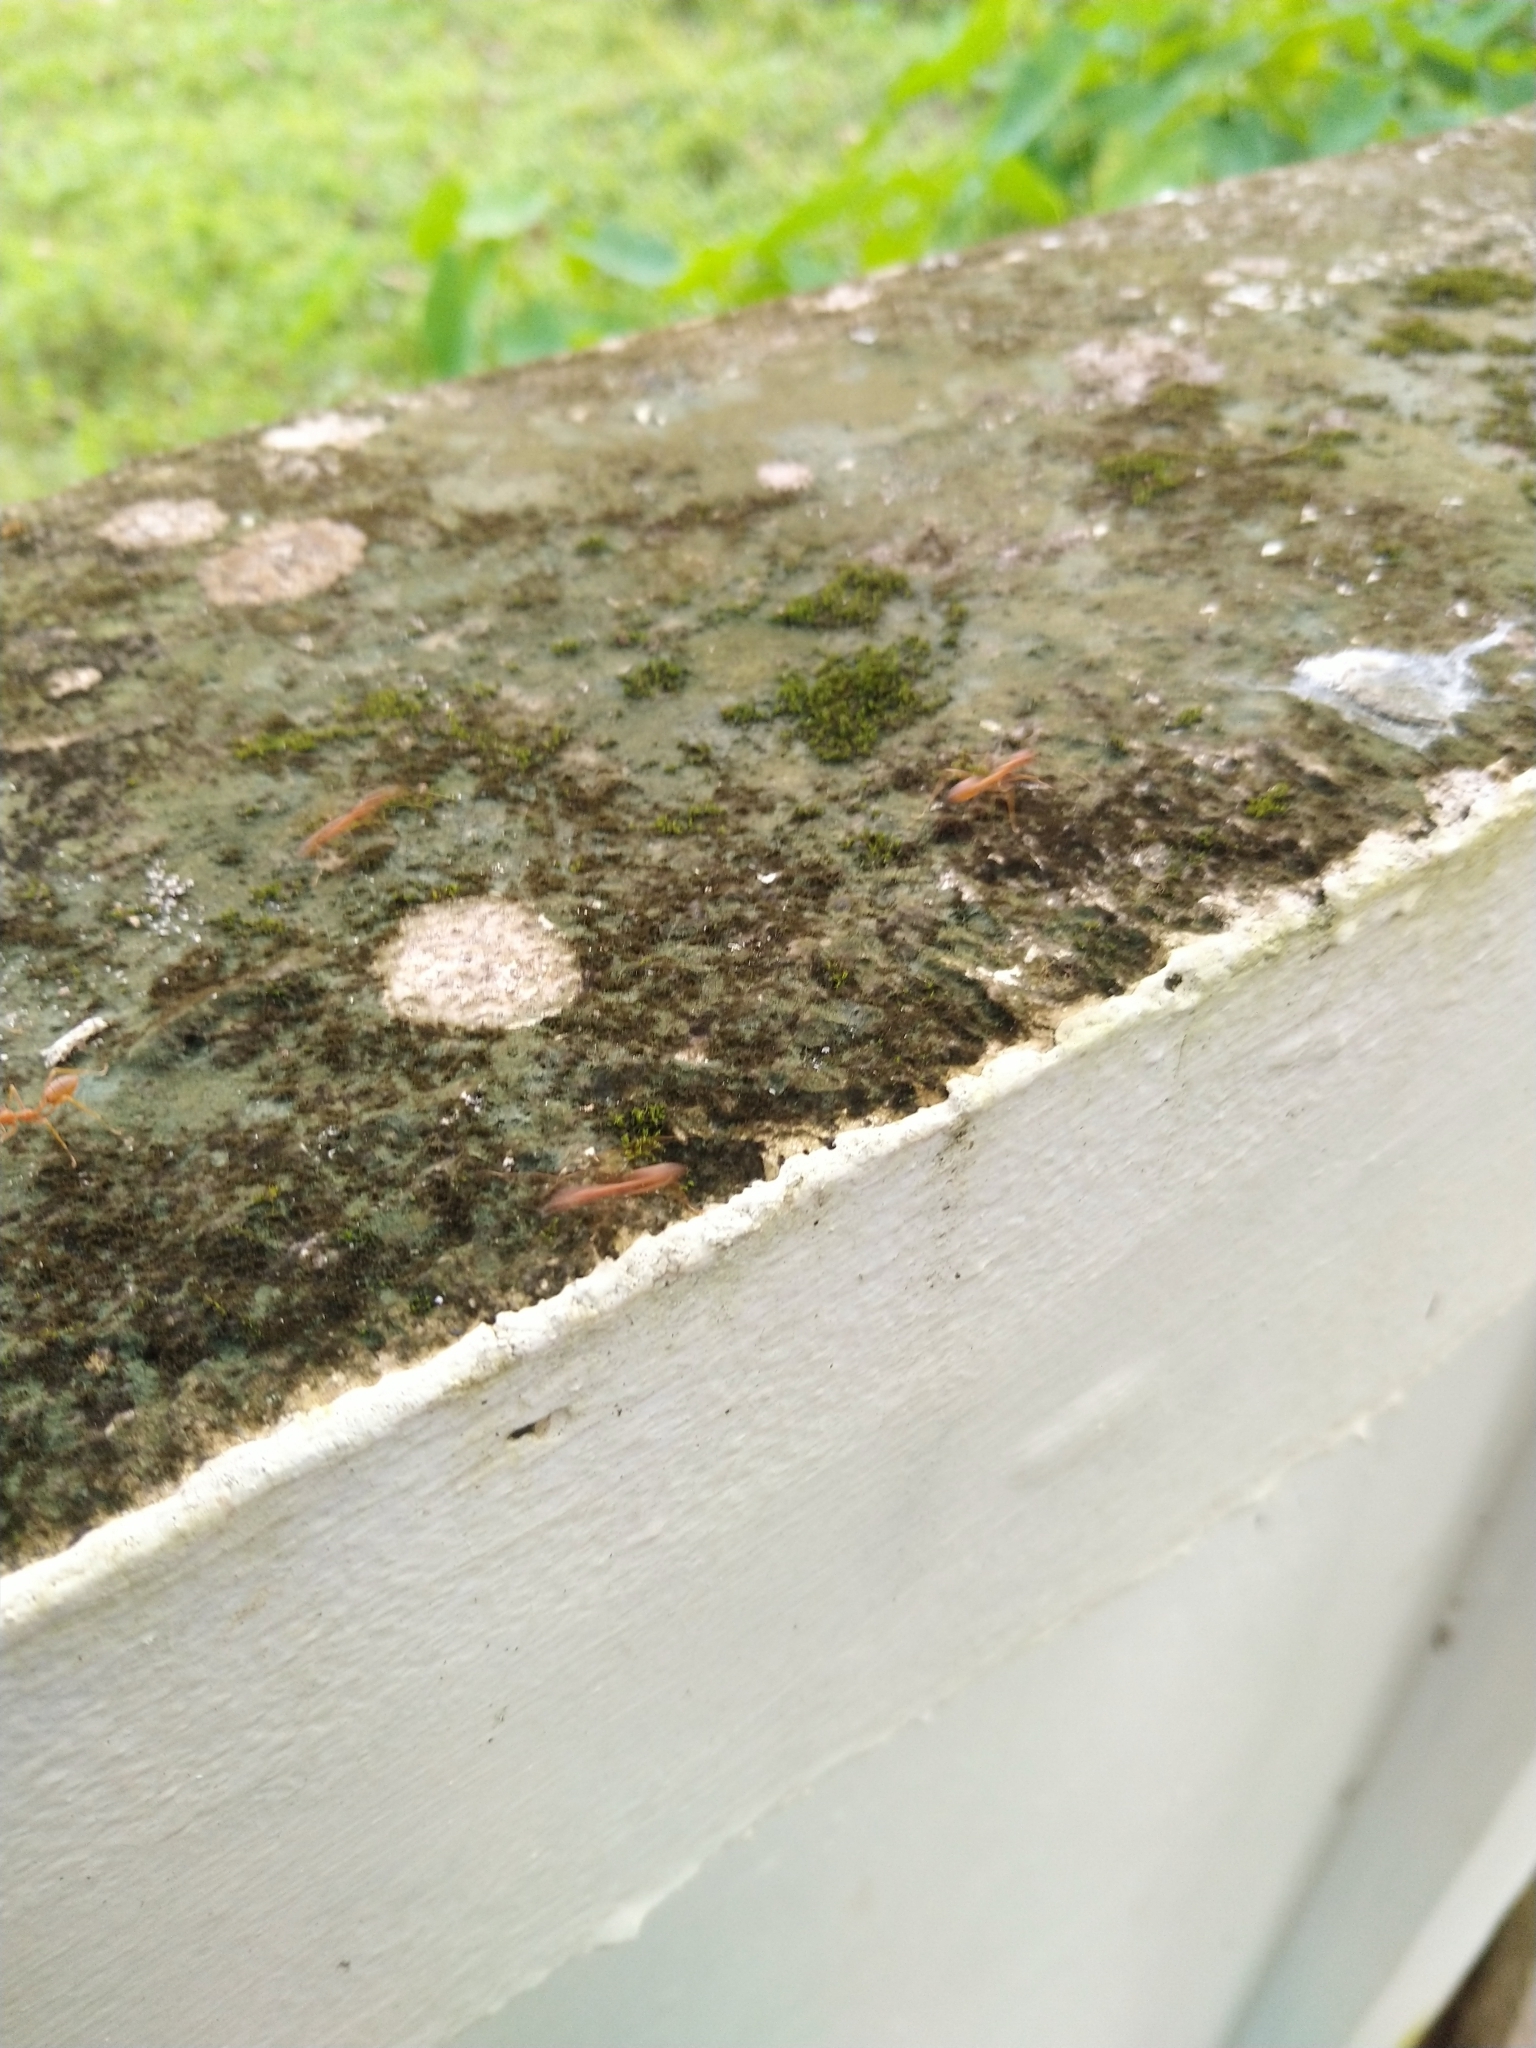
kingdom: Animalia
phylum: Arthropoda
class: Insecta
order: Hymenoptera
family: Formicidae
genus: Oecophylla
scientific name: Oecophylla smaragdina
